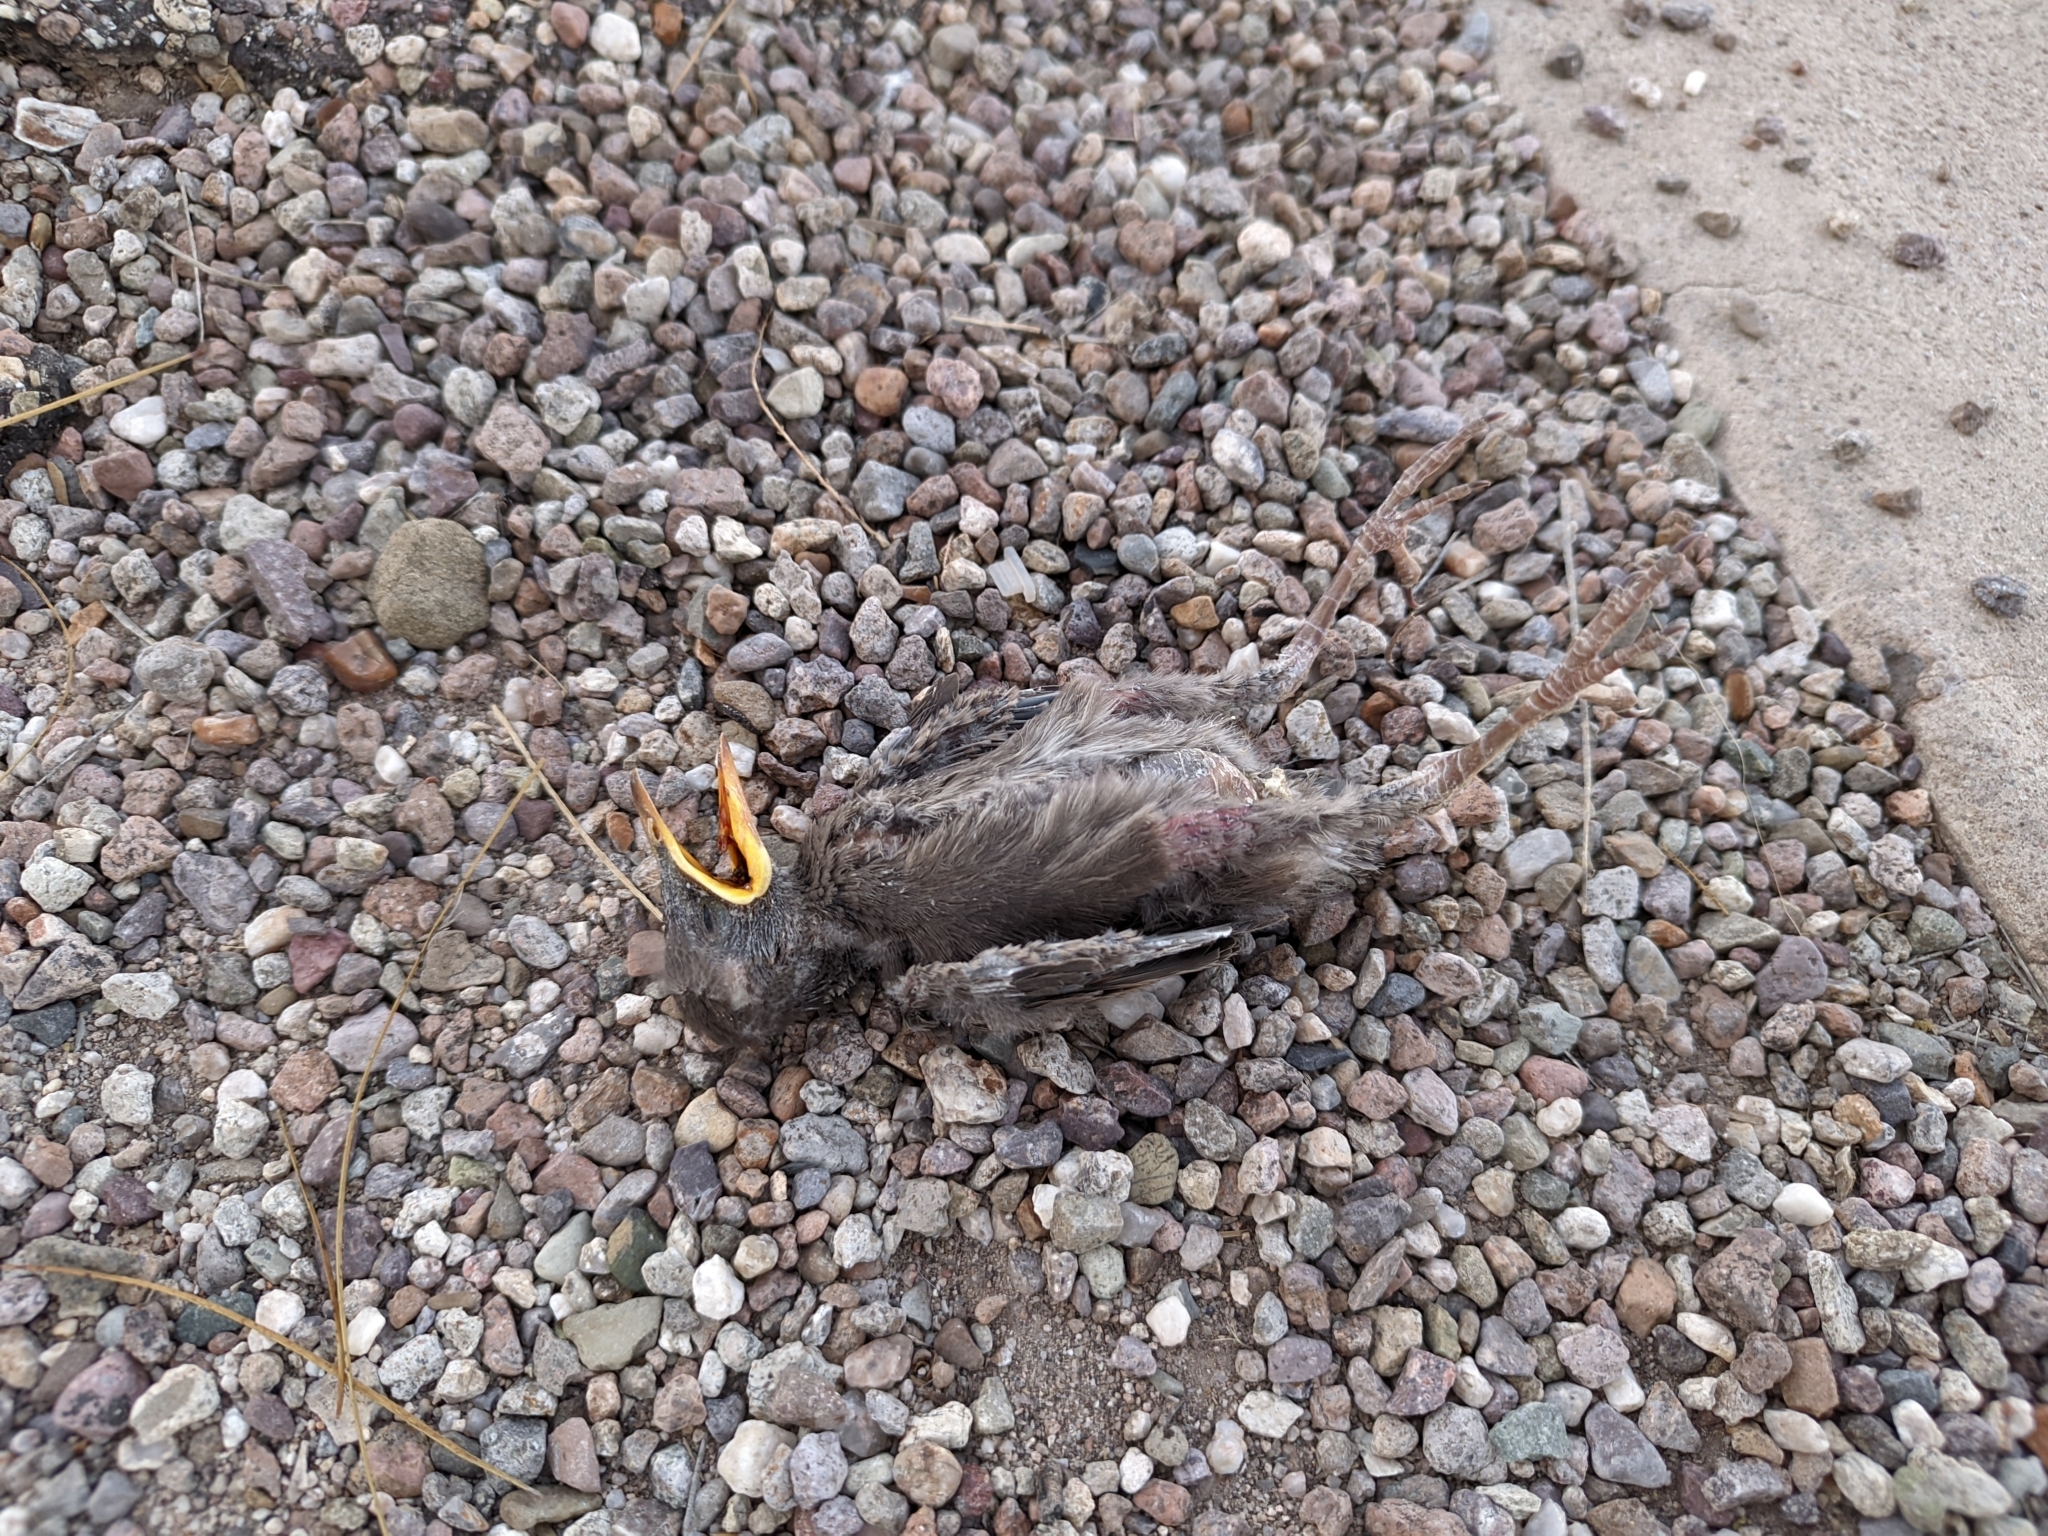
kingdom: Animalia
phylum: Chordata
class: Aves
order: Passeriformes
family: Sturnidae
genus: Sturnus
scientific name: Sturnus vulgaris
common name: Common starling
